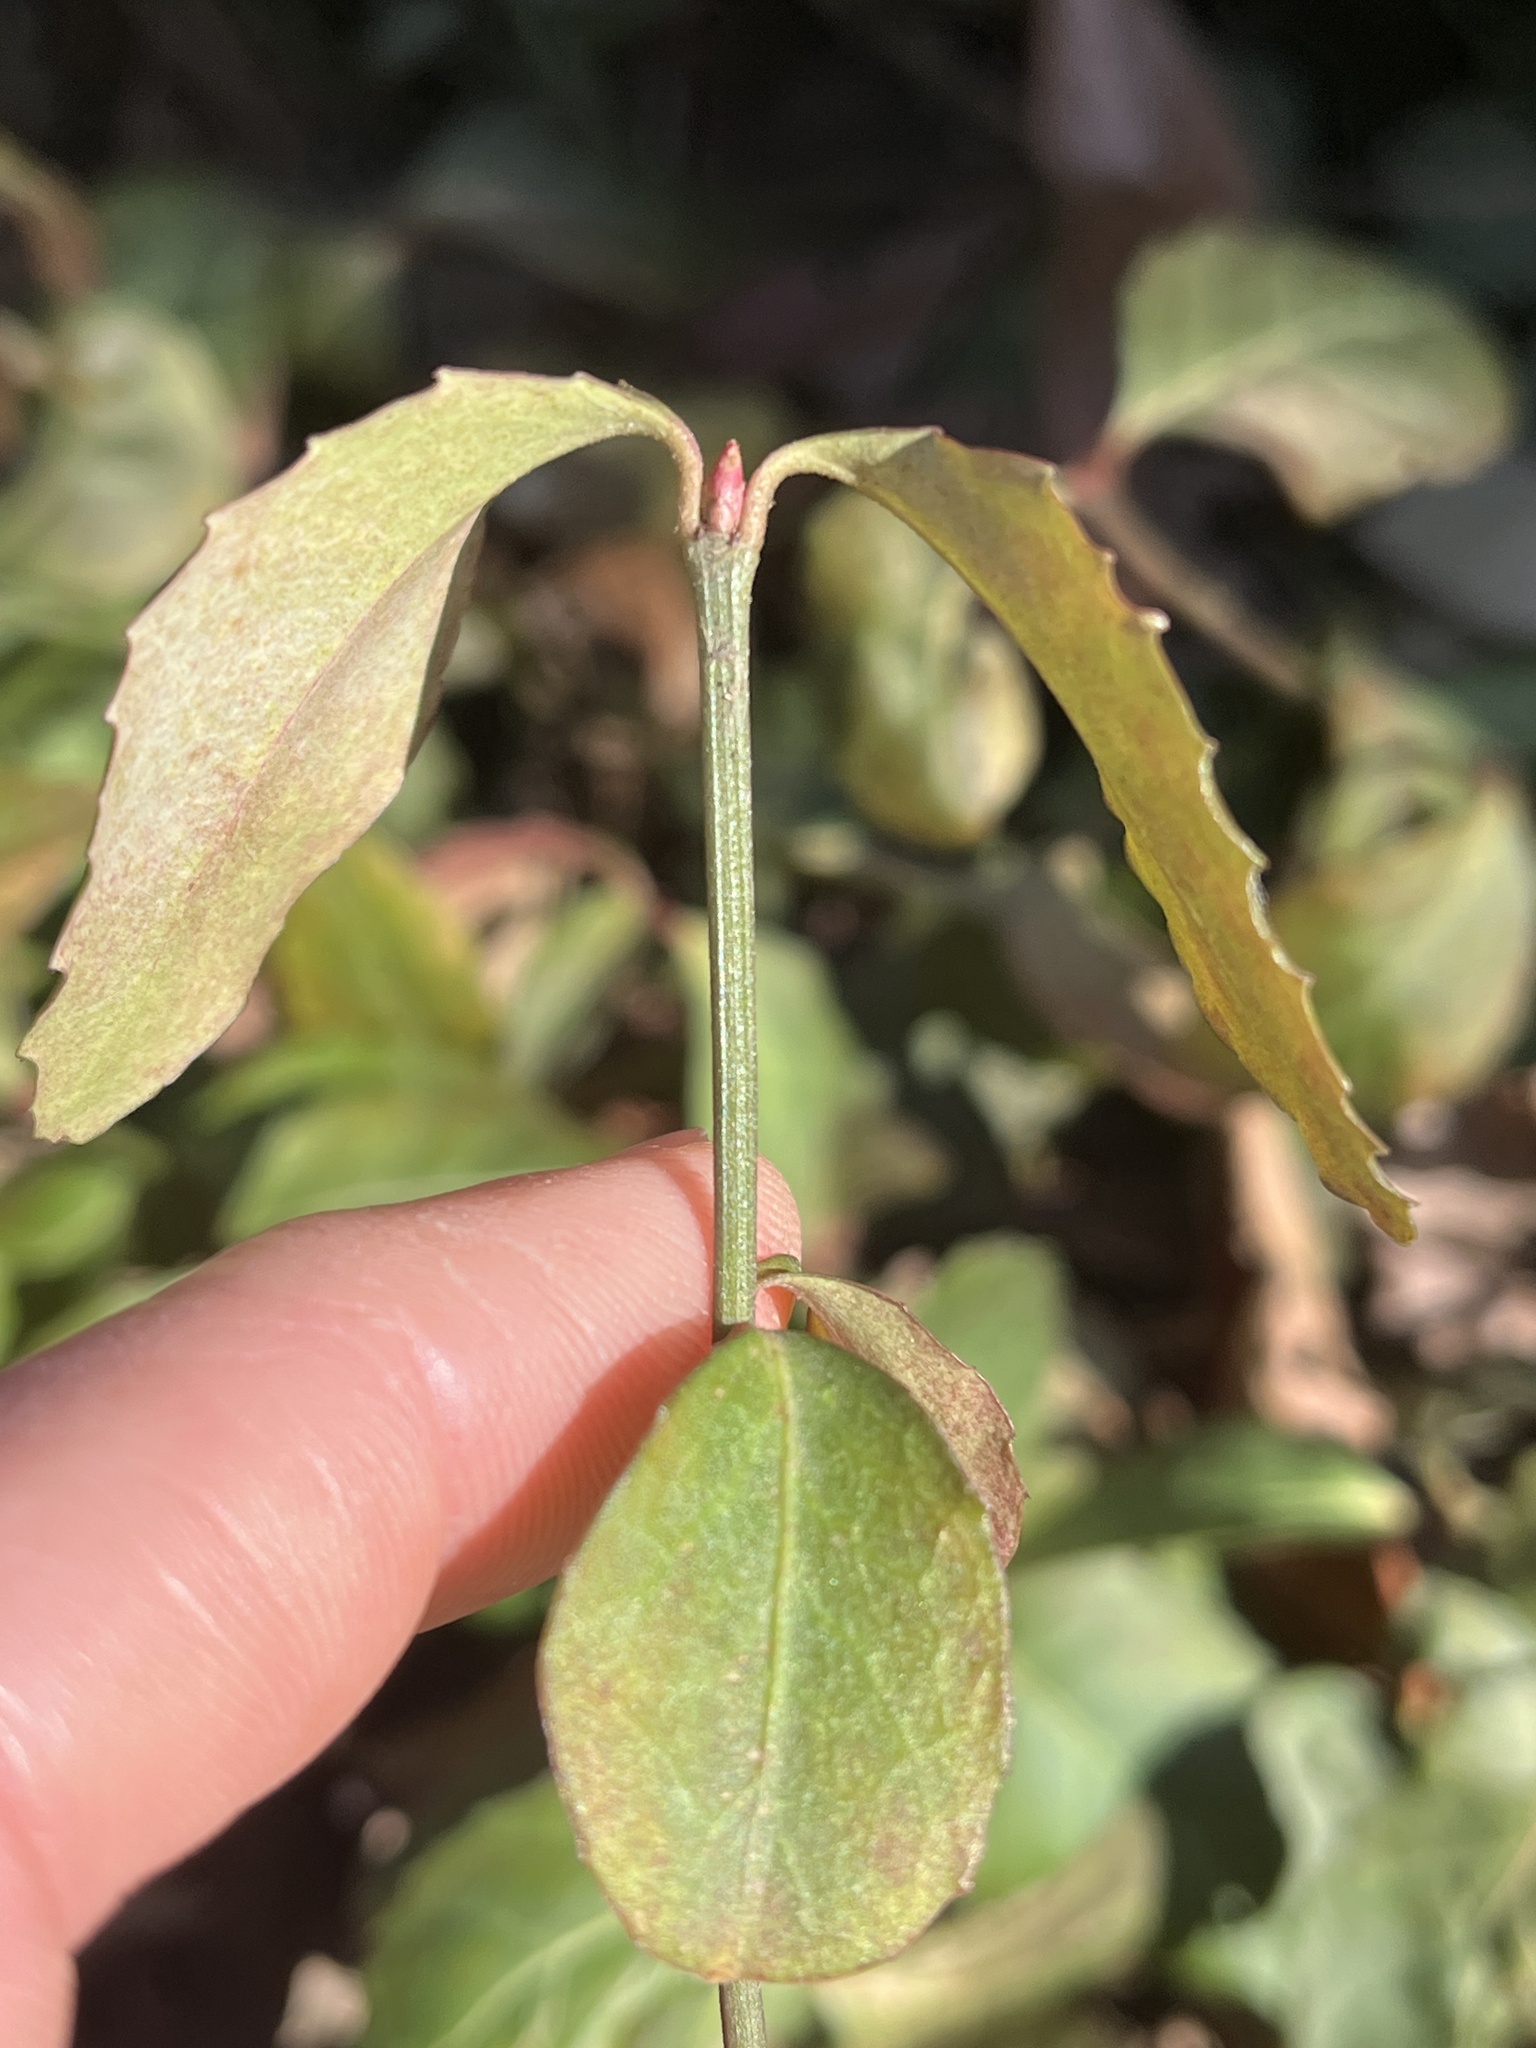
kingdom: Plantae
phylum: Tracheophyta
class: Magnoliopsida
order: Celastrales
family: Celastraceae
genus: Euonymus
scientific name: Euonymus fortunei
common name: Climbing euonymus
